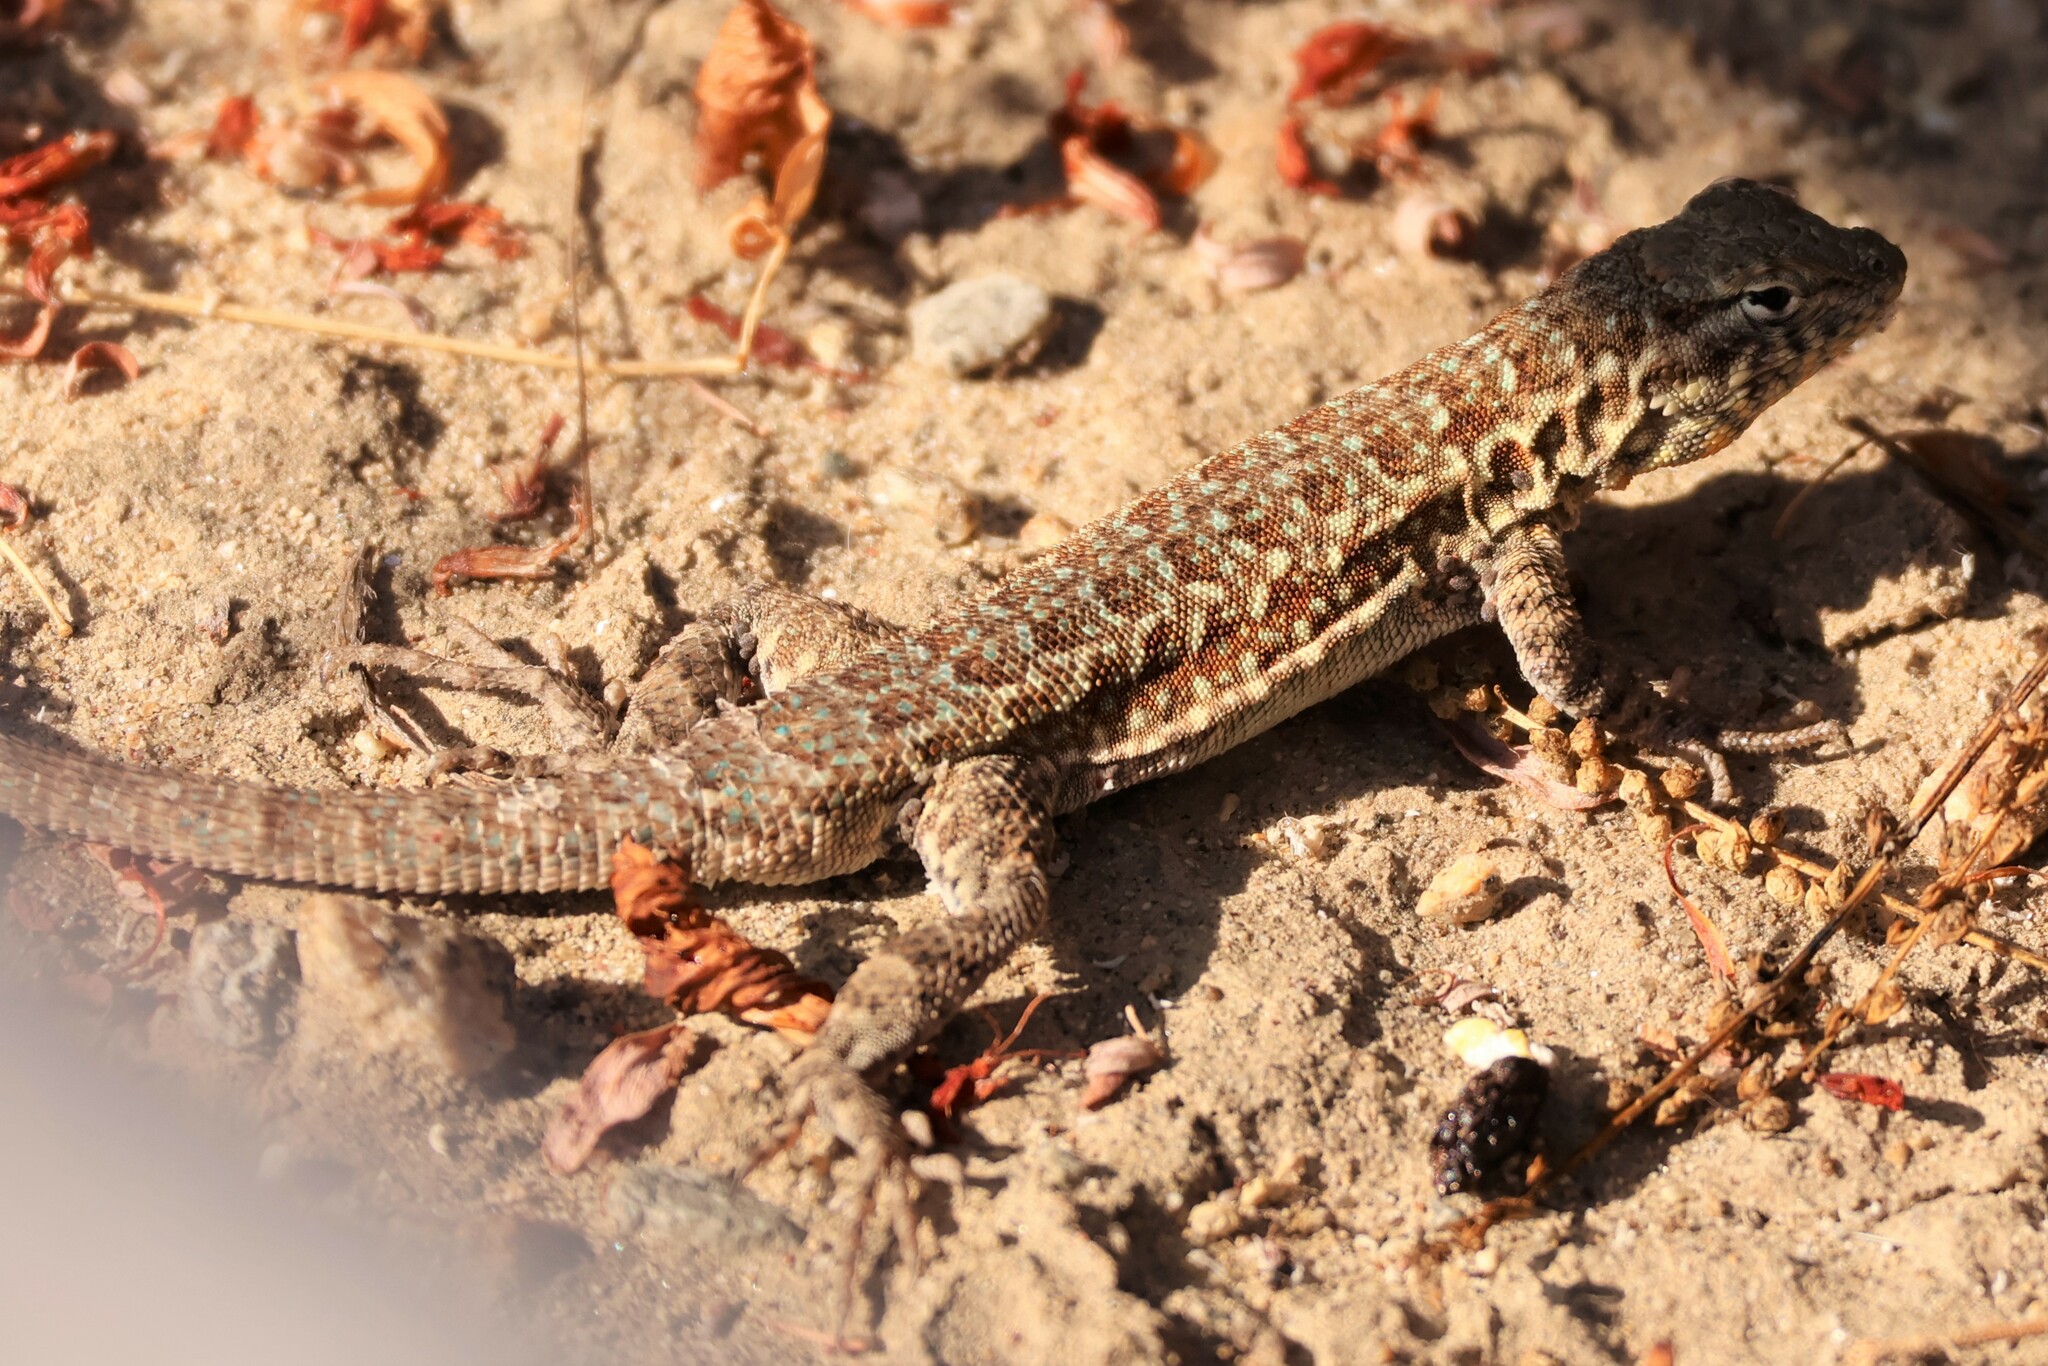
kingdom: Animalia
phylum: Chordata
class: Squamata
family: Phrynosomatidae
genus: Uta
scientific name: Uta stansburiana
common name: Side-blotched lizard
